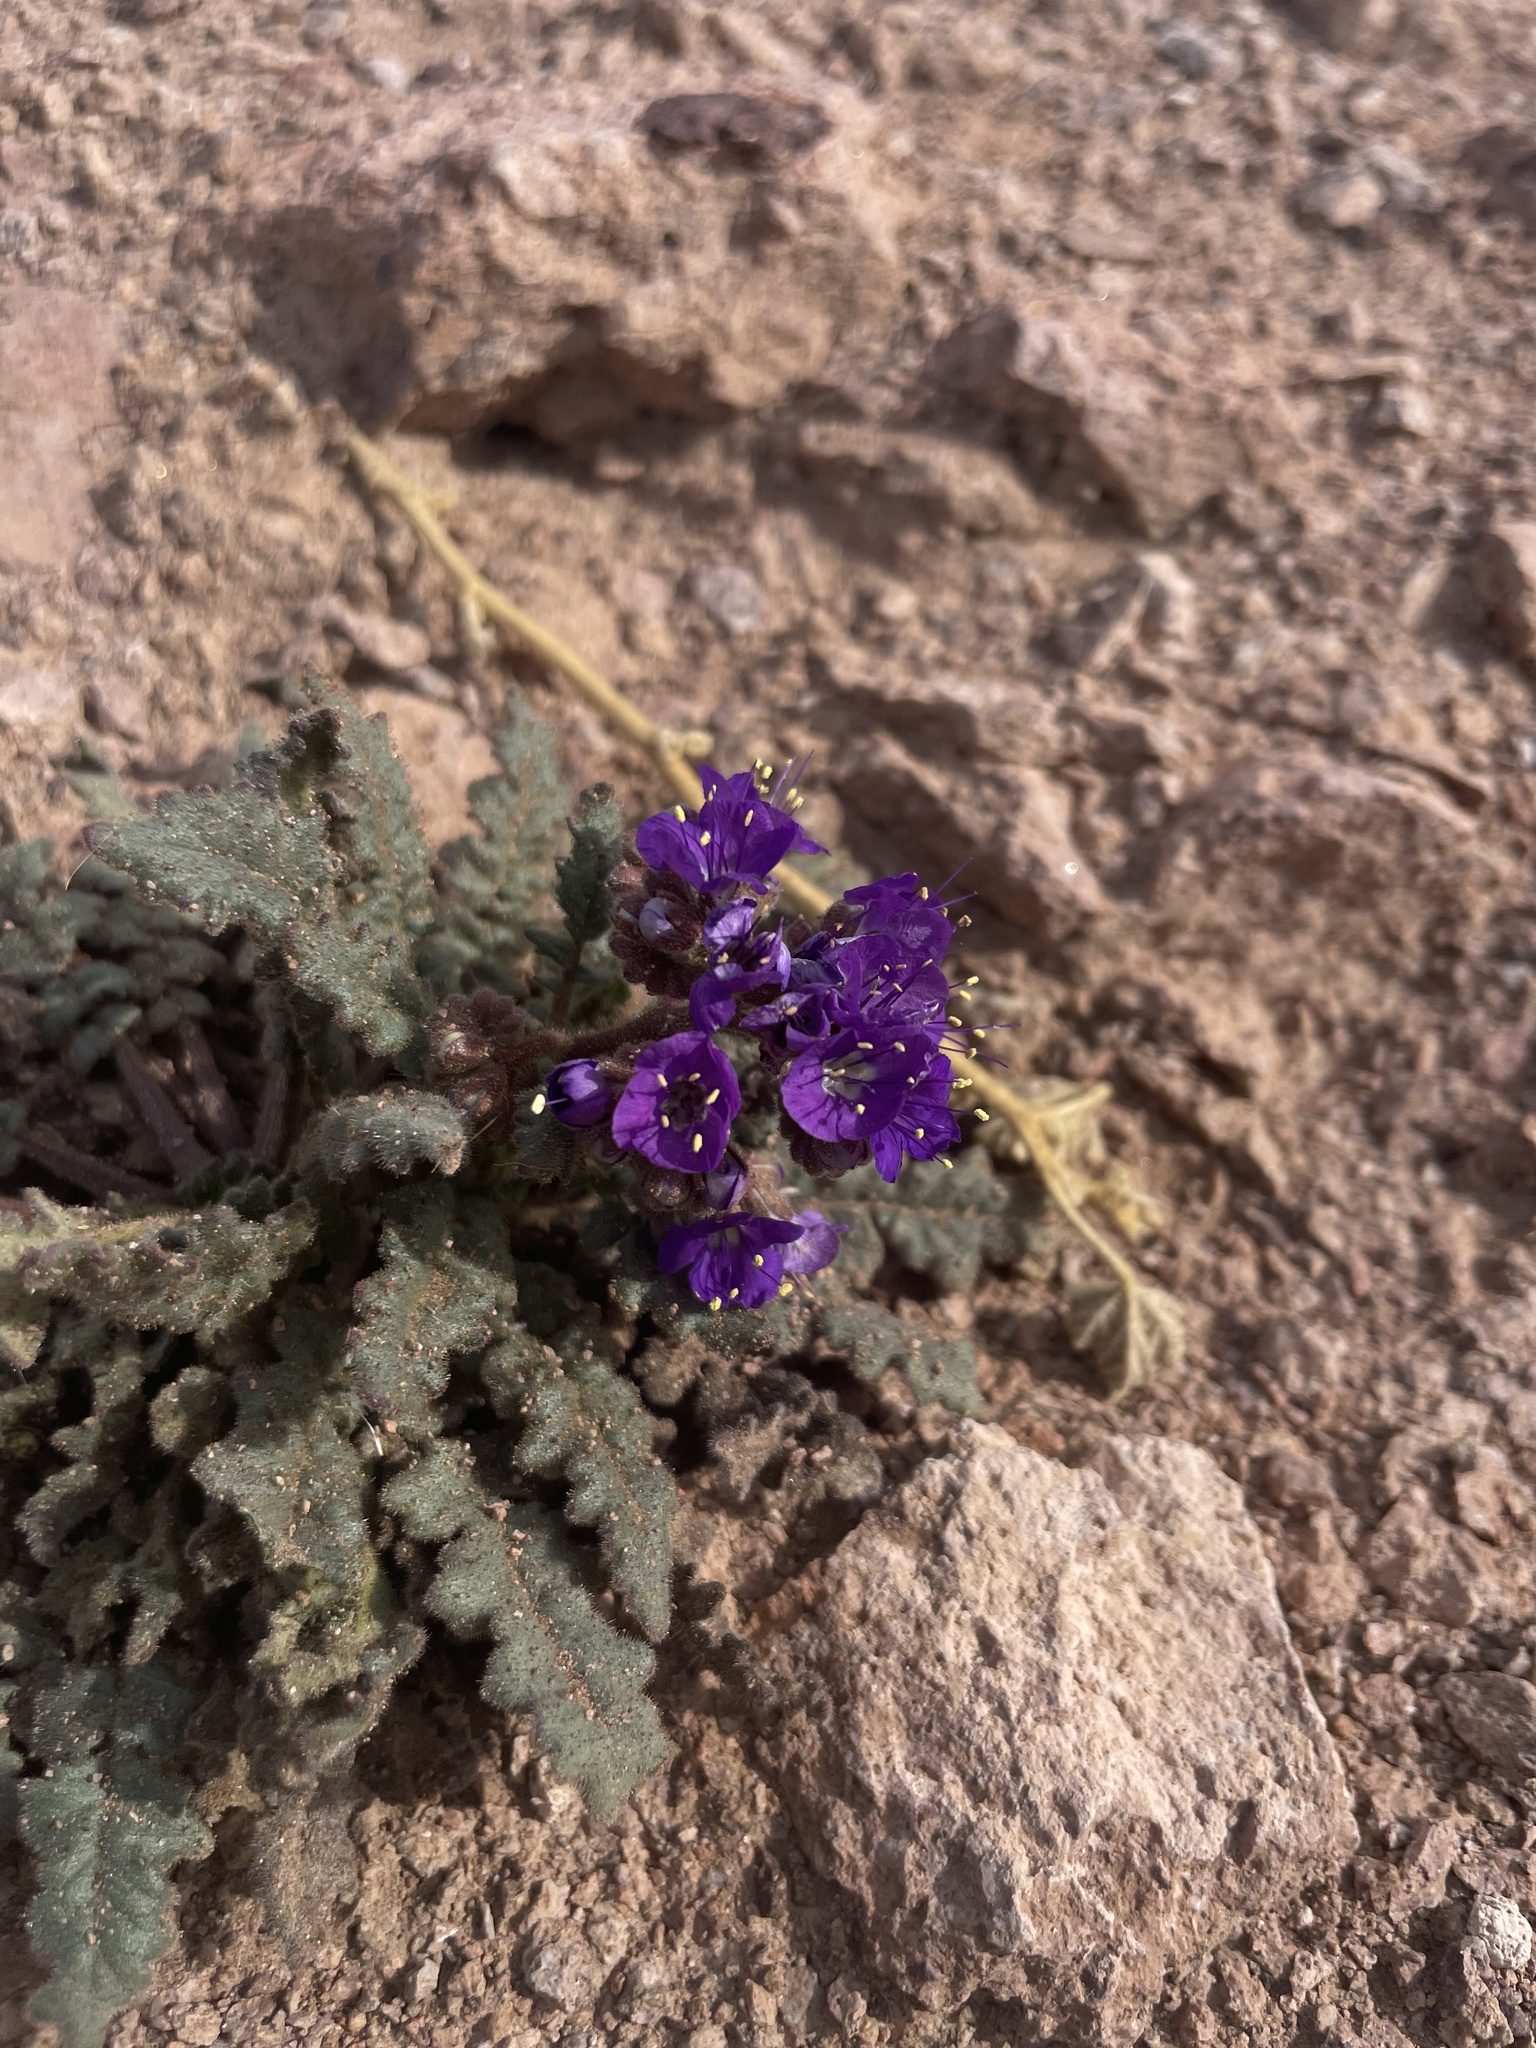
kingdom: Plantae
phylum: Tracheophyta
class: Magnoliopsida
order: Boraginales
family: Hydrophyllaceae
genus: Phacelia
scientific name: Phacelia crenulata
